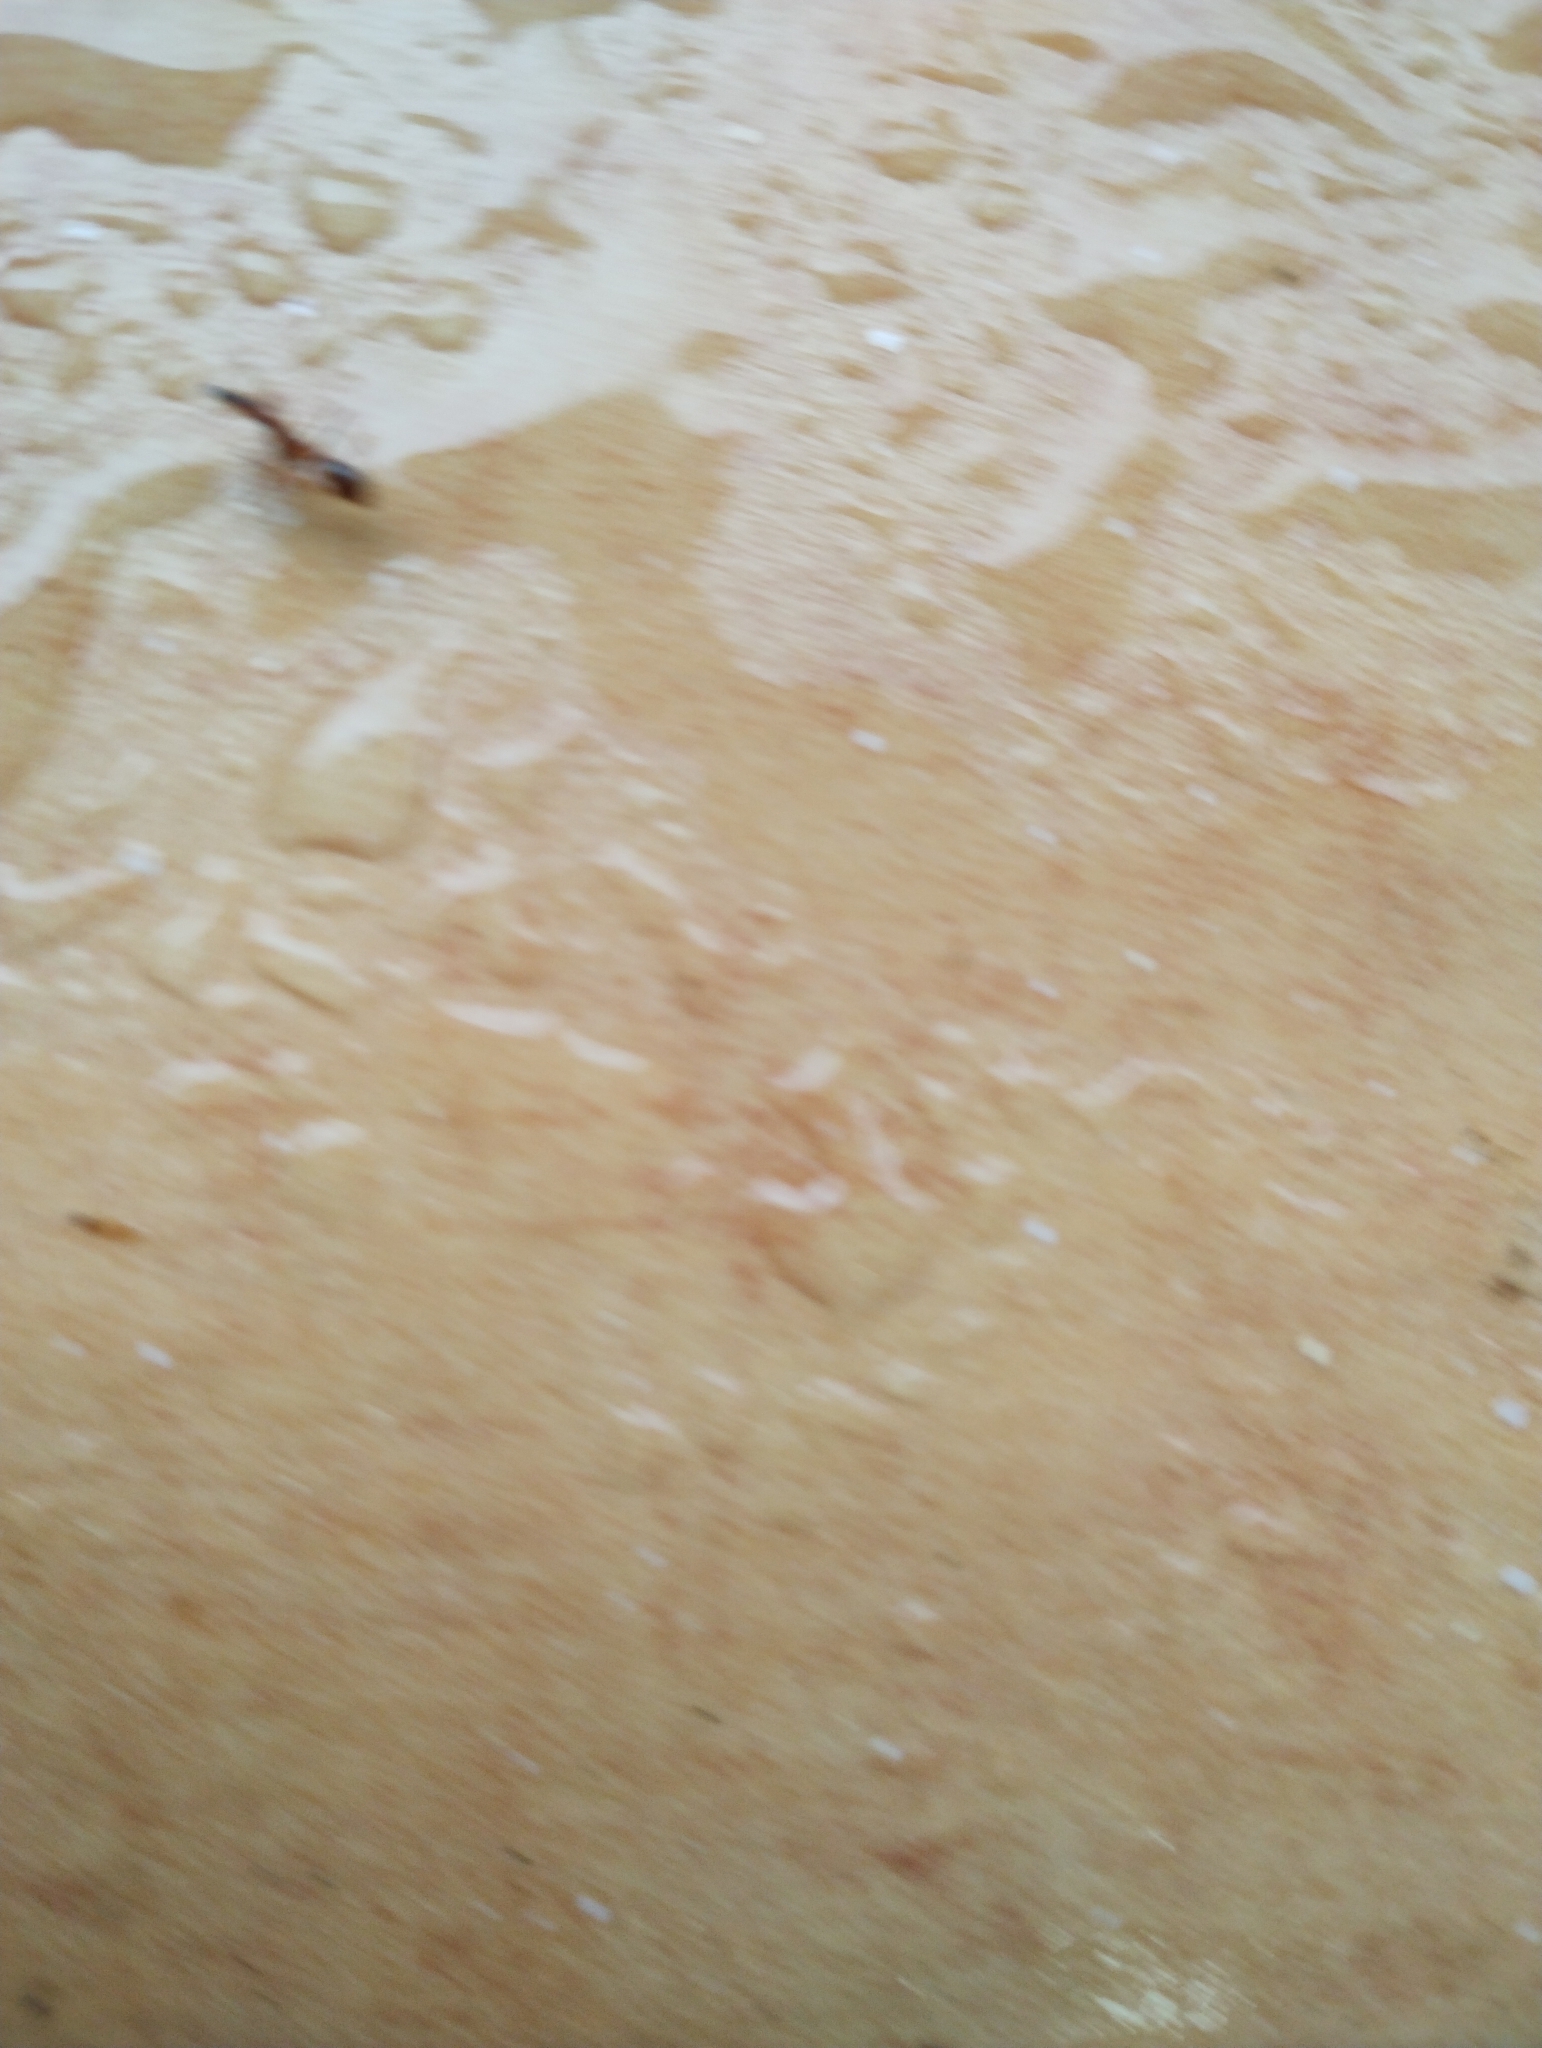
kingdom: Animalia
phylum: Arthropoda
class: Insecta
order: Hymenoptera
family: Formicidae
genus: Anoplolepis
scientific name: Anoplolepis gracilipes
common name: Ant
